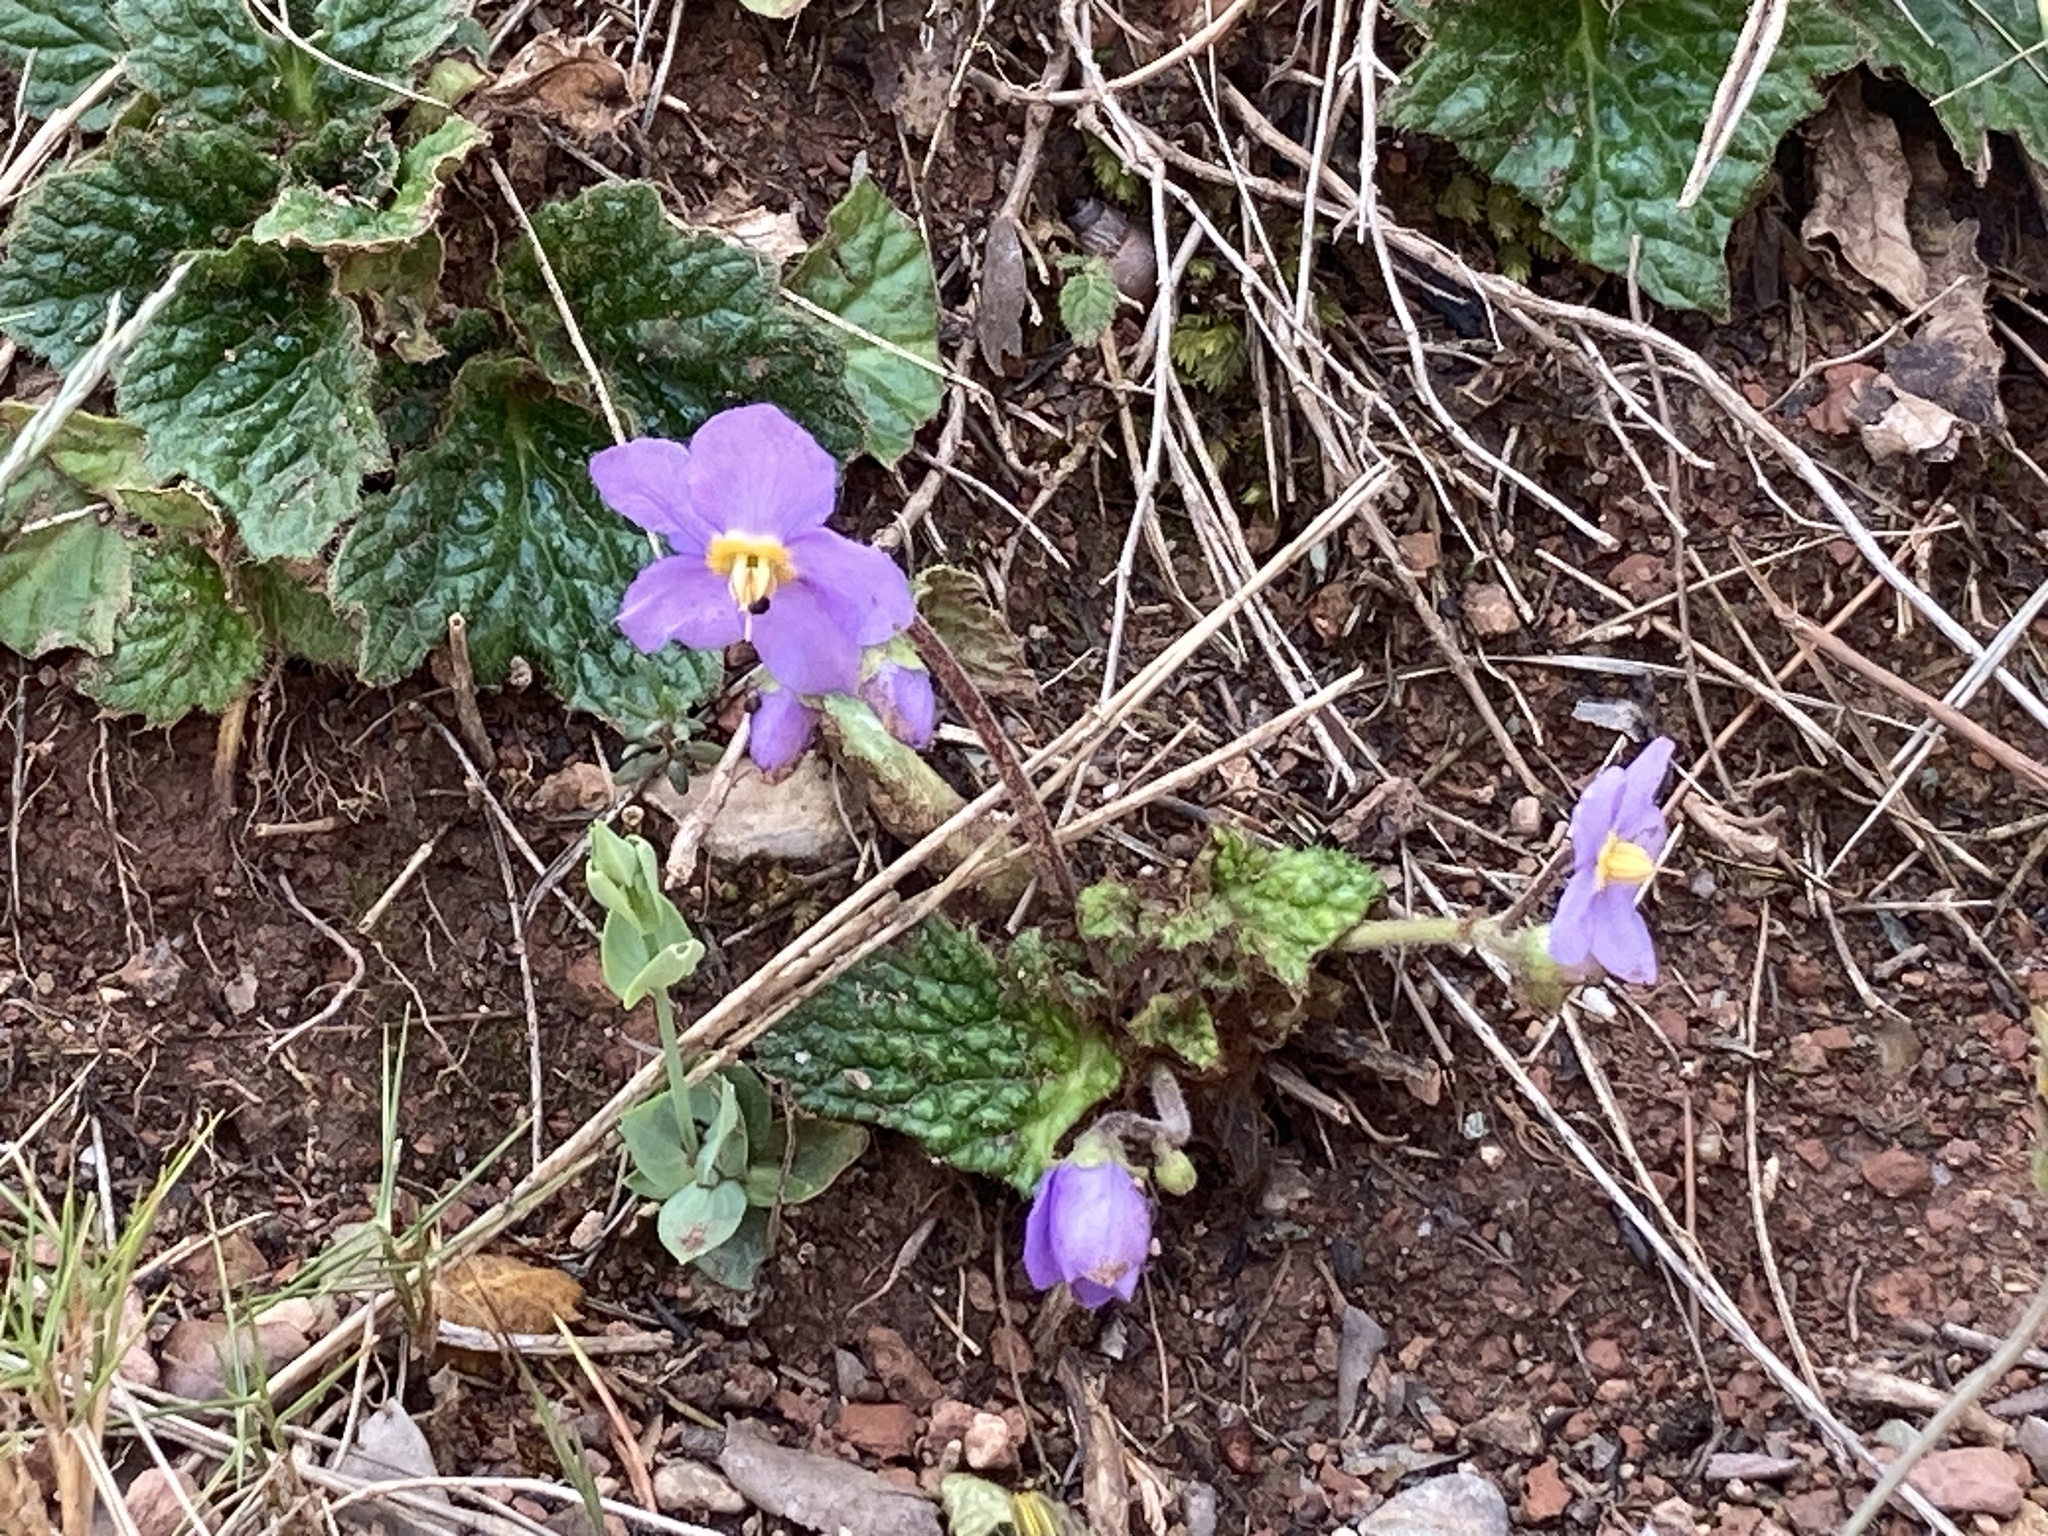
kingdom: Plantae
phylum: Tracheophyta
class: Magnoliopsida
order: Lamiales
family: Gesneriaceae
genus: Ramonda
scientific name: Ramonda myconi
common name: Pyrenean-violet
